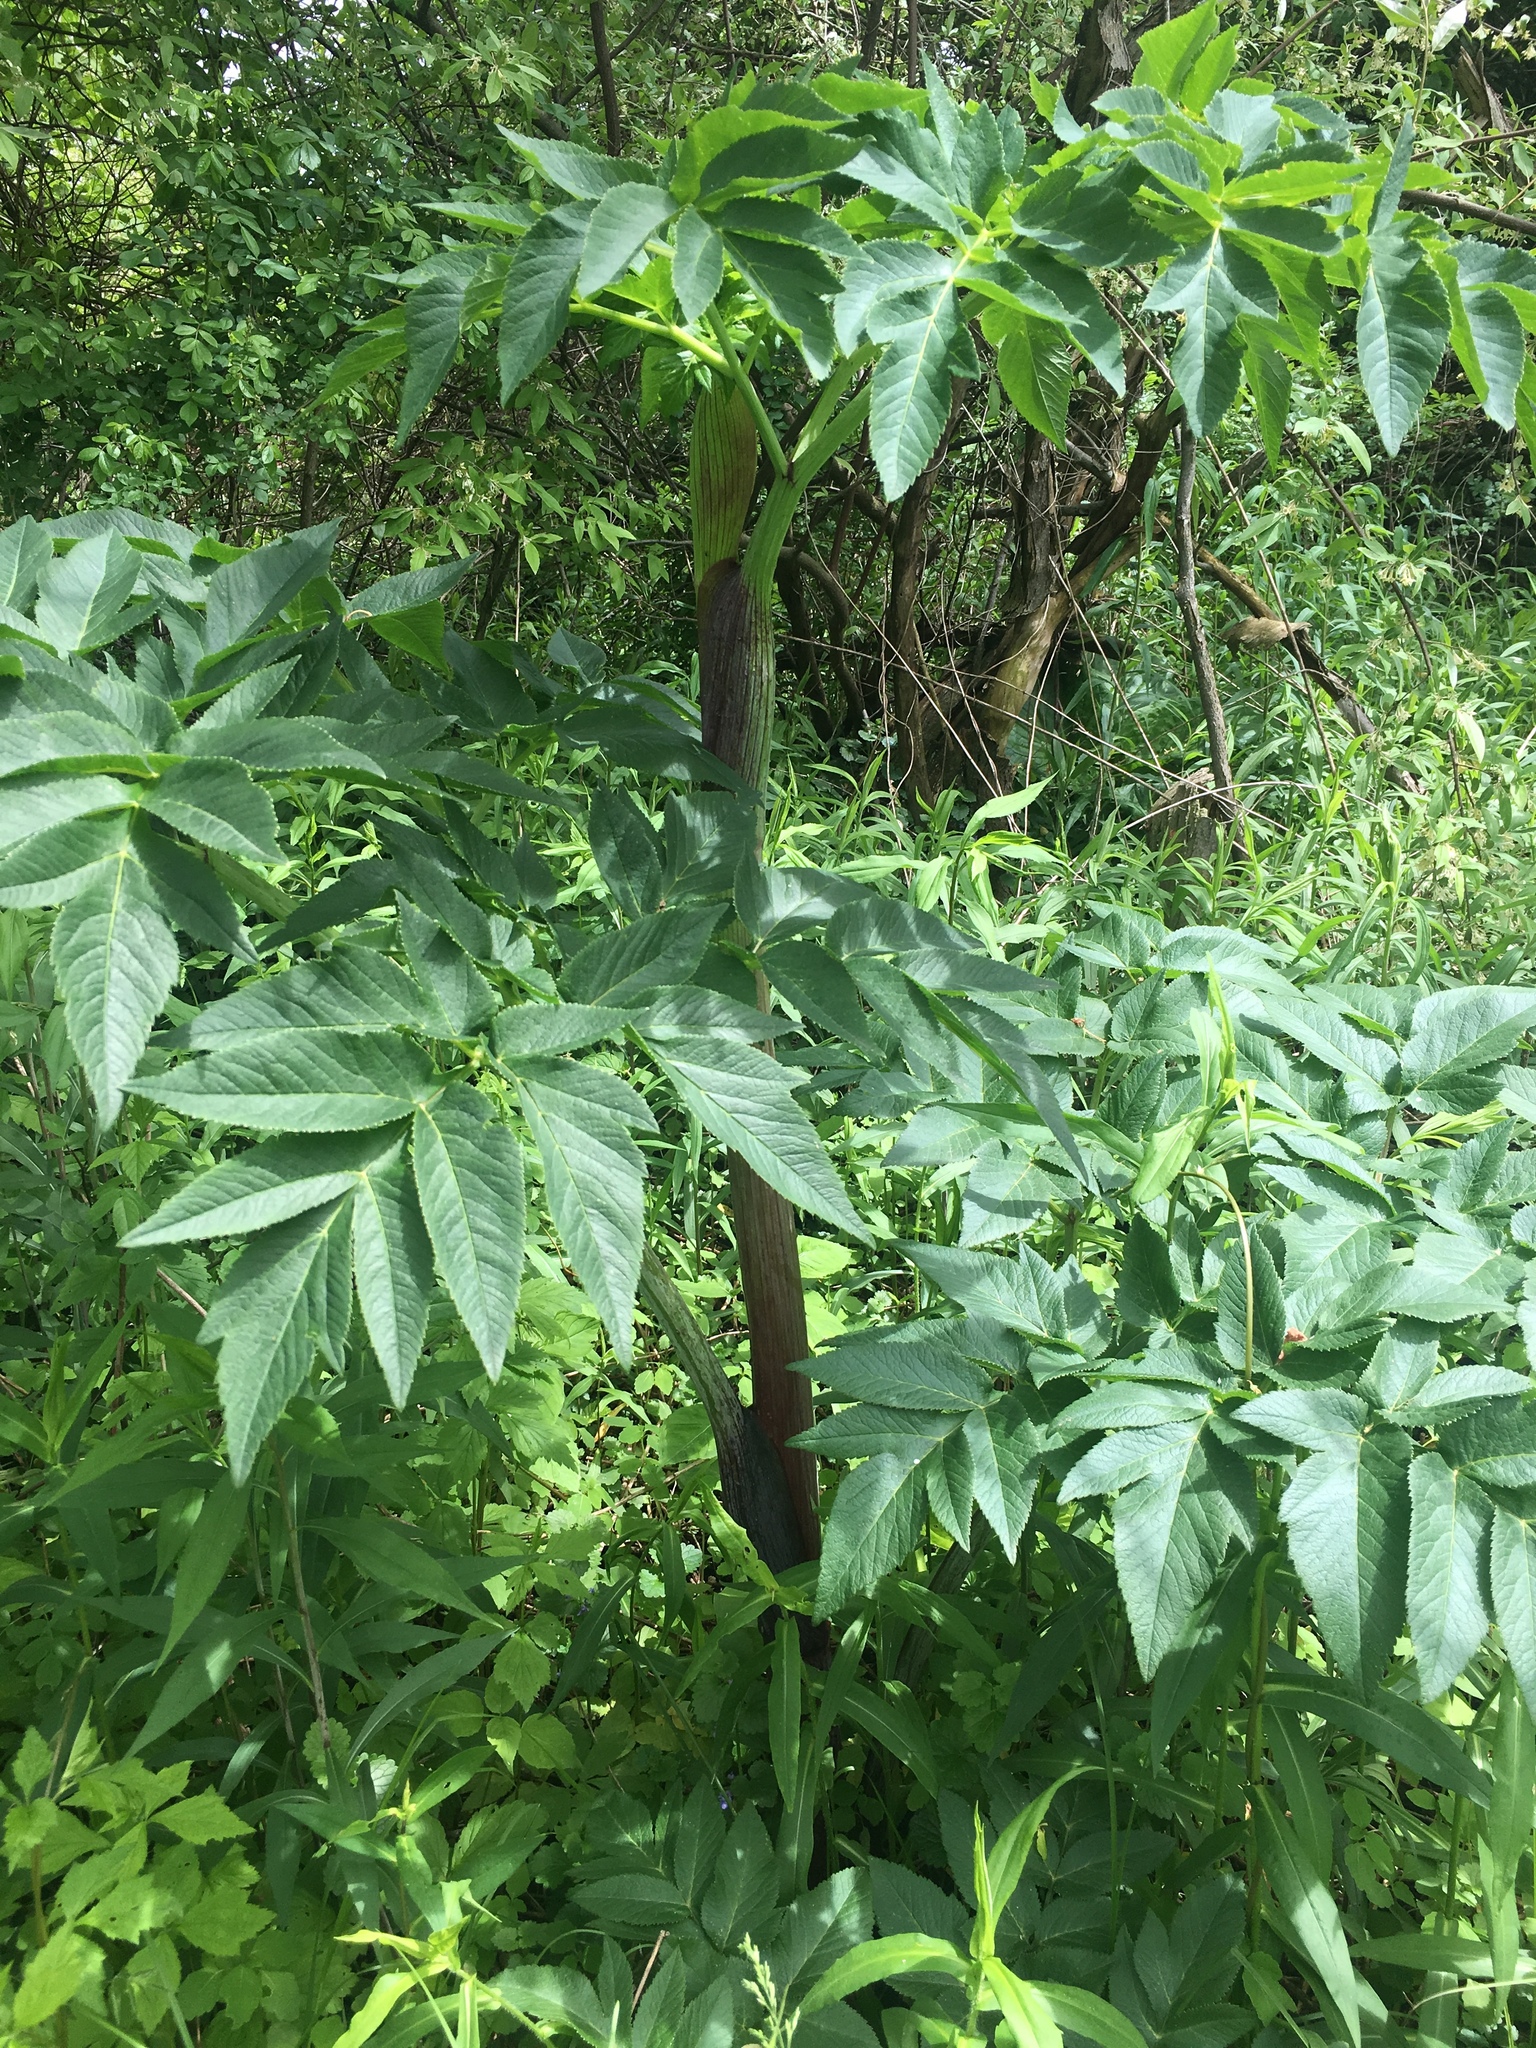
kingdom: Plantae
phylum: Tracheophyta
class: Magnoliopsida
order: Apiales
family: Apiaceae
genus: Angelica
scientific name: Angelica atropurpurea
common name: Great angelica
